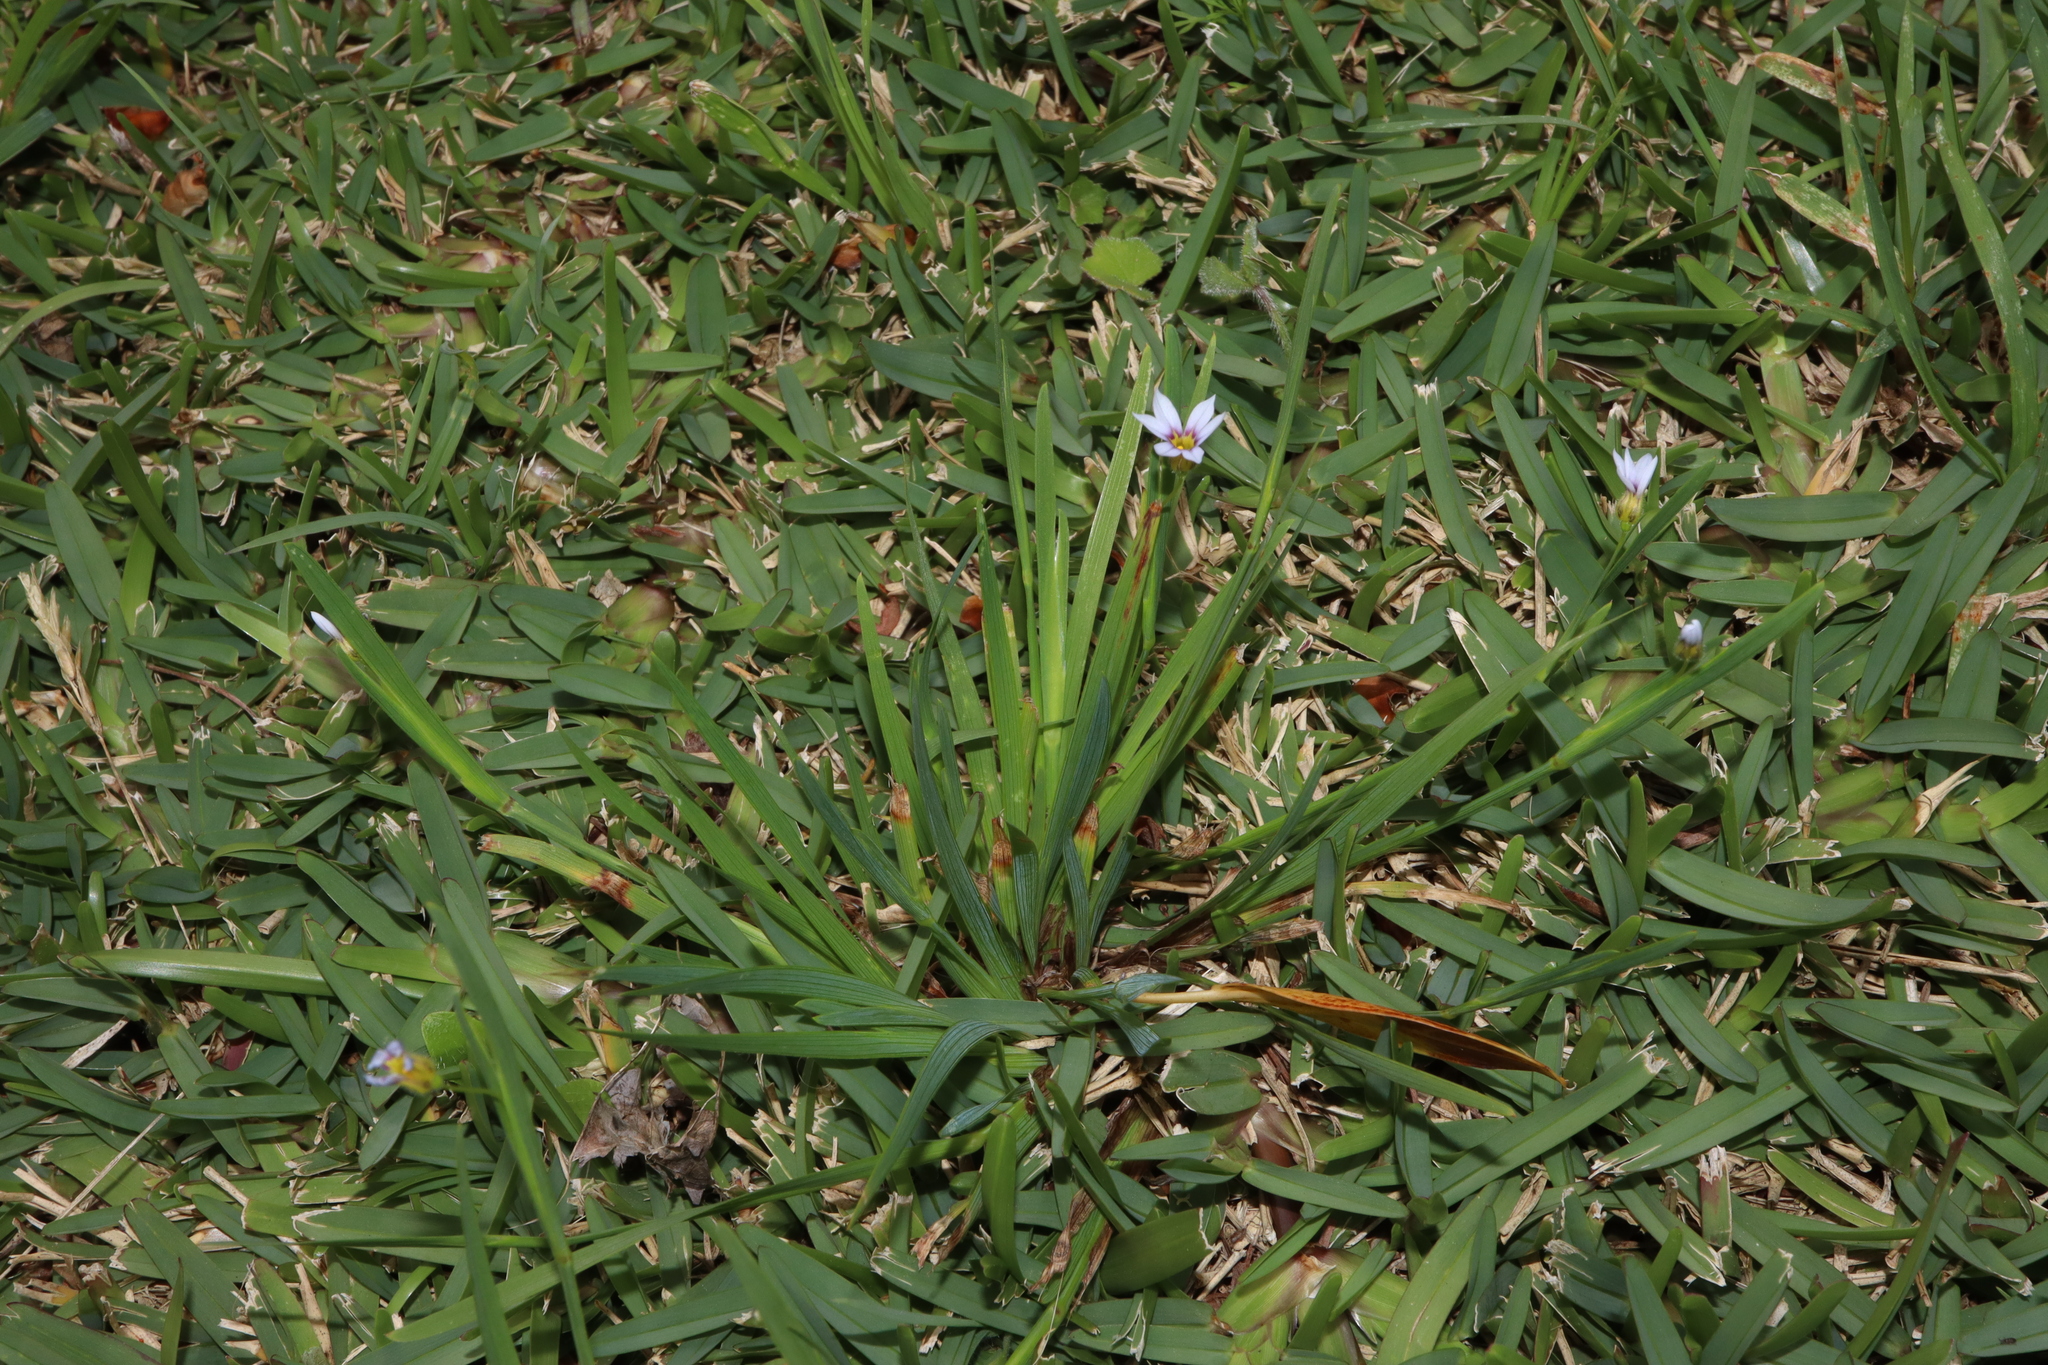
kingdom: Plantae
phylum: Tracheophyta
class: Liliopsida
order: Asparagales
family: Iridaceae
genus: Sisyrinchium
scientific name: Sisyrinchium micranthum
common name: Bermuda pigroot
